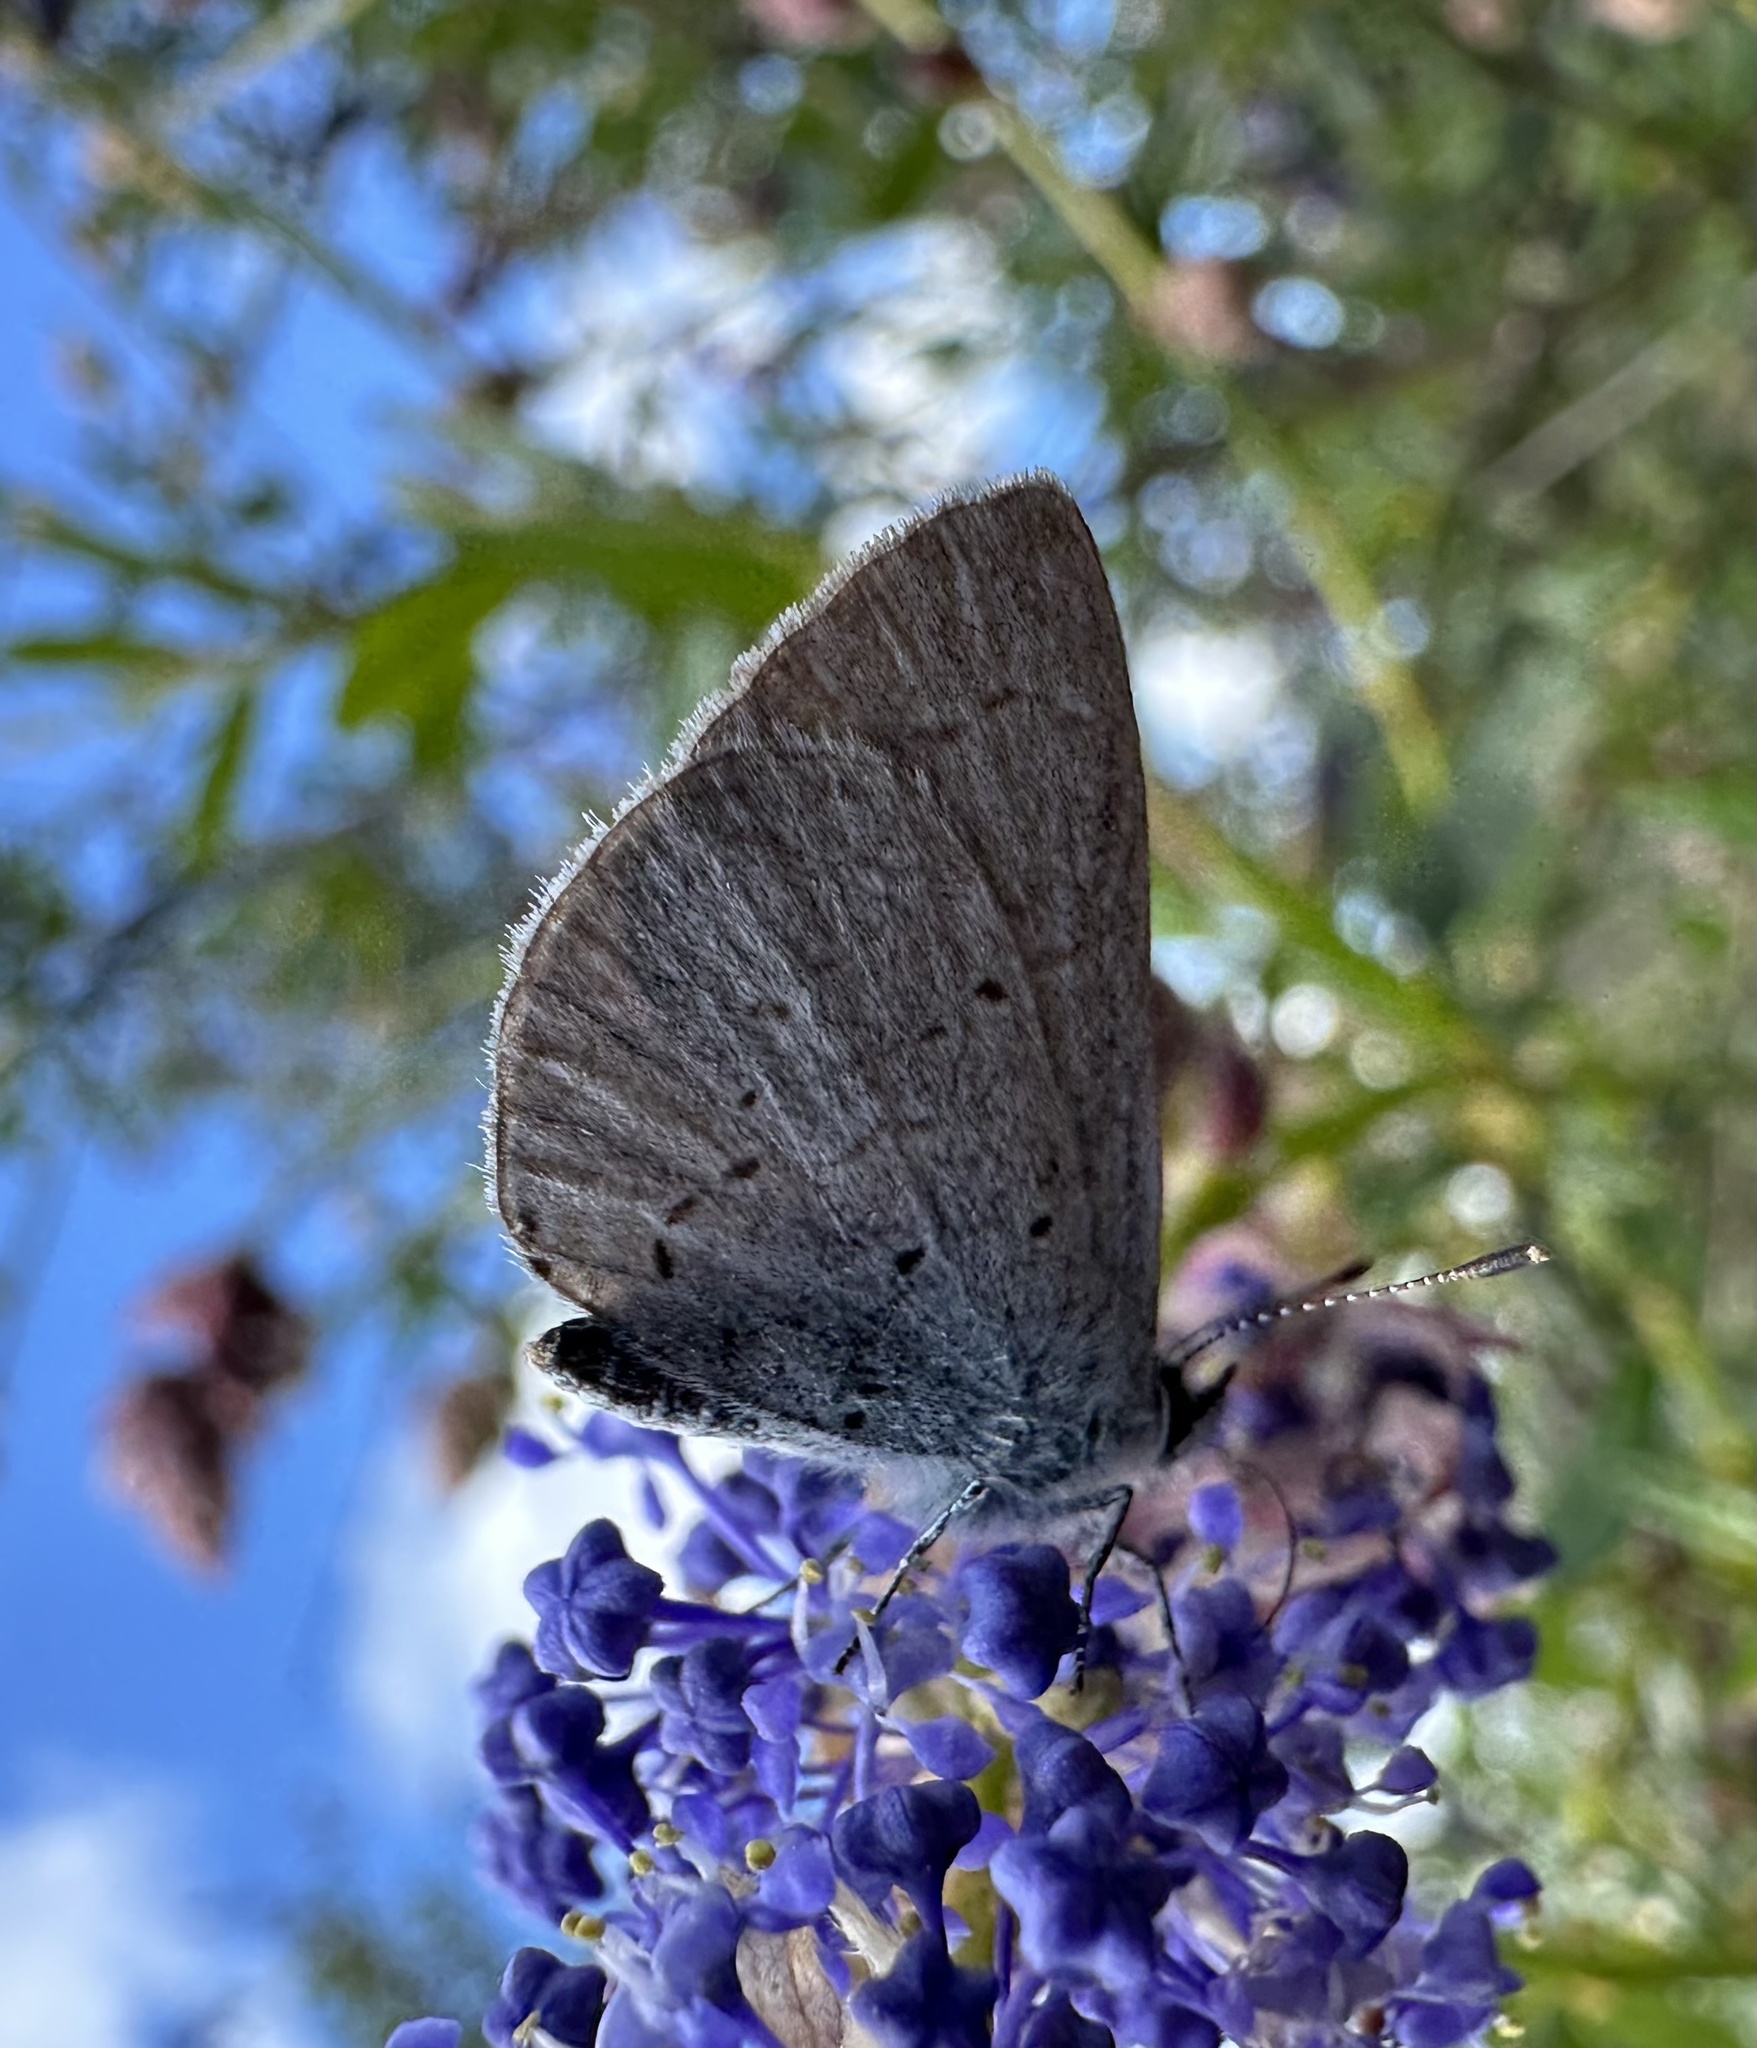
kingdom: Animalia
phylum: Arthropoda
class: Insecta
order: Lepidoptera
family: Lycaenidae
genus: Celastrina
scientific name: Celastrina ladon
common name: Spring azure
